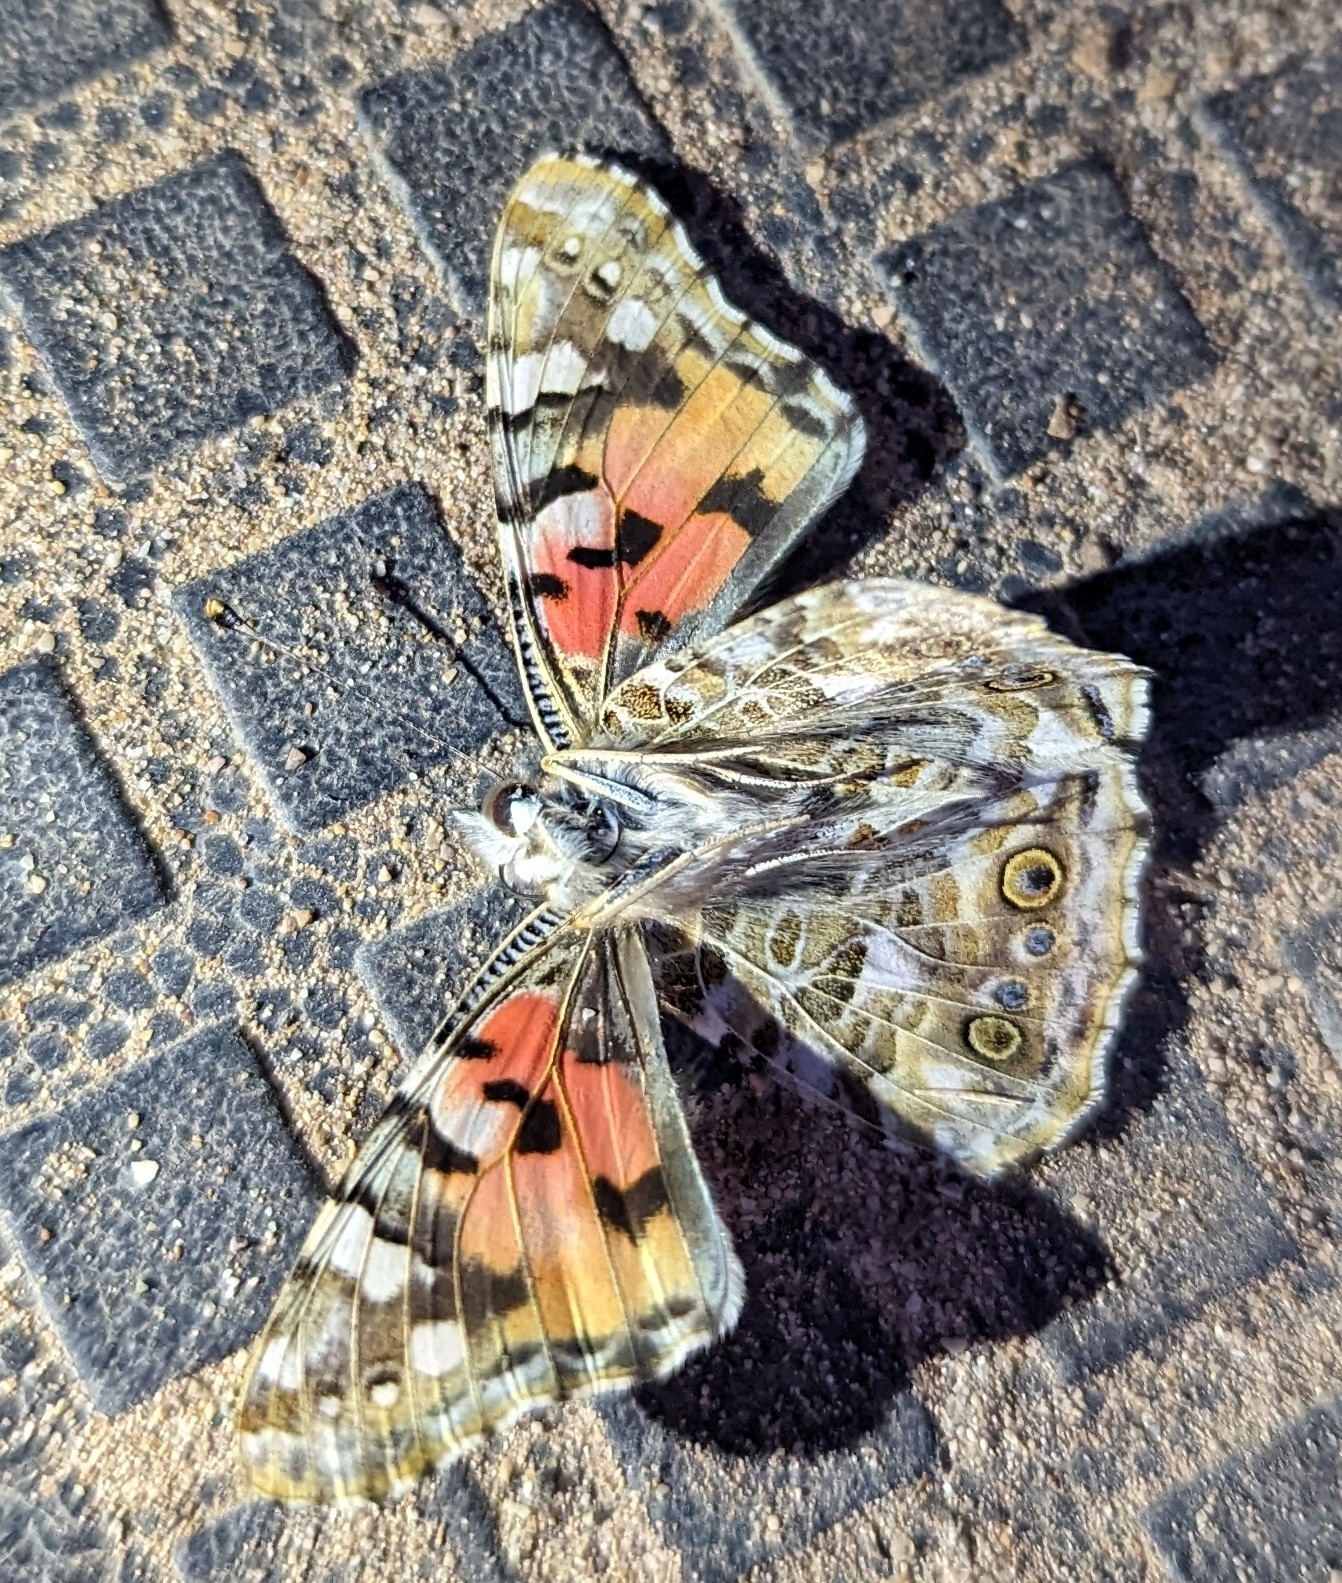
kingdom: Animalia
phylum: Arthropoda
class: Insecta
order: Lepidoptera
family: Nymphalidae
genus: Vanessa
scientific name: Vanessa cardui
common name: Painted lady
